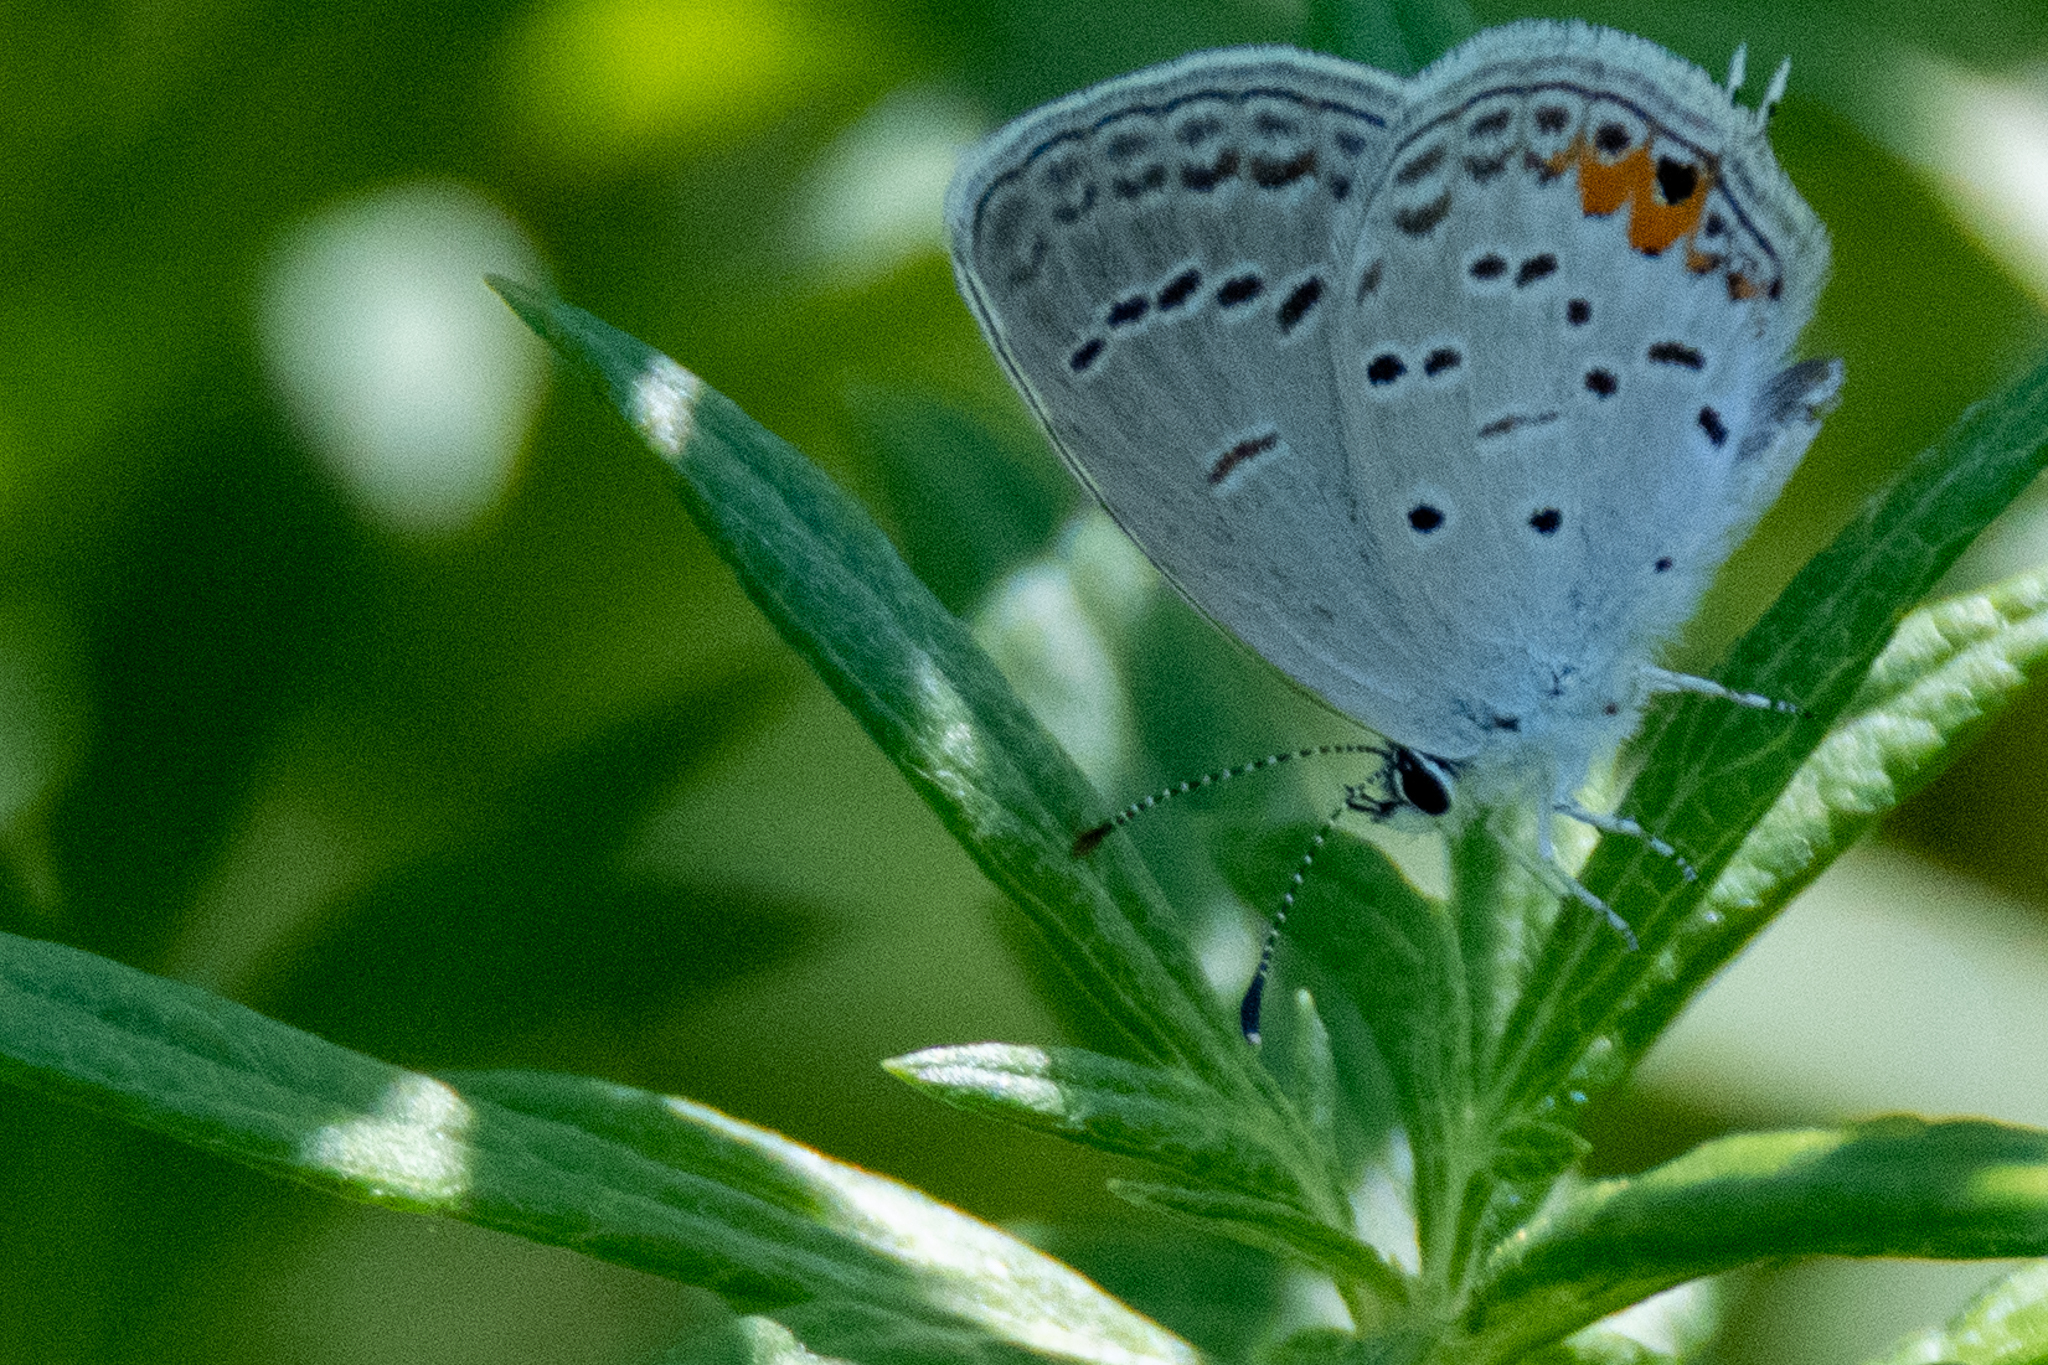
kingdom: Animalia
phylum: Arthropoda
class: Insecta
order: Lepidoptera
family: Lycaenidae
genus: Elkalyce
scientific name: Elkalyce comyntas
